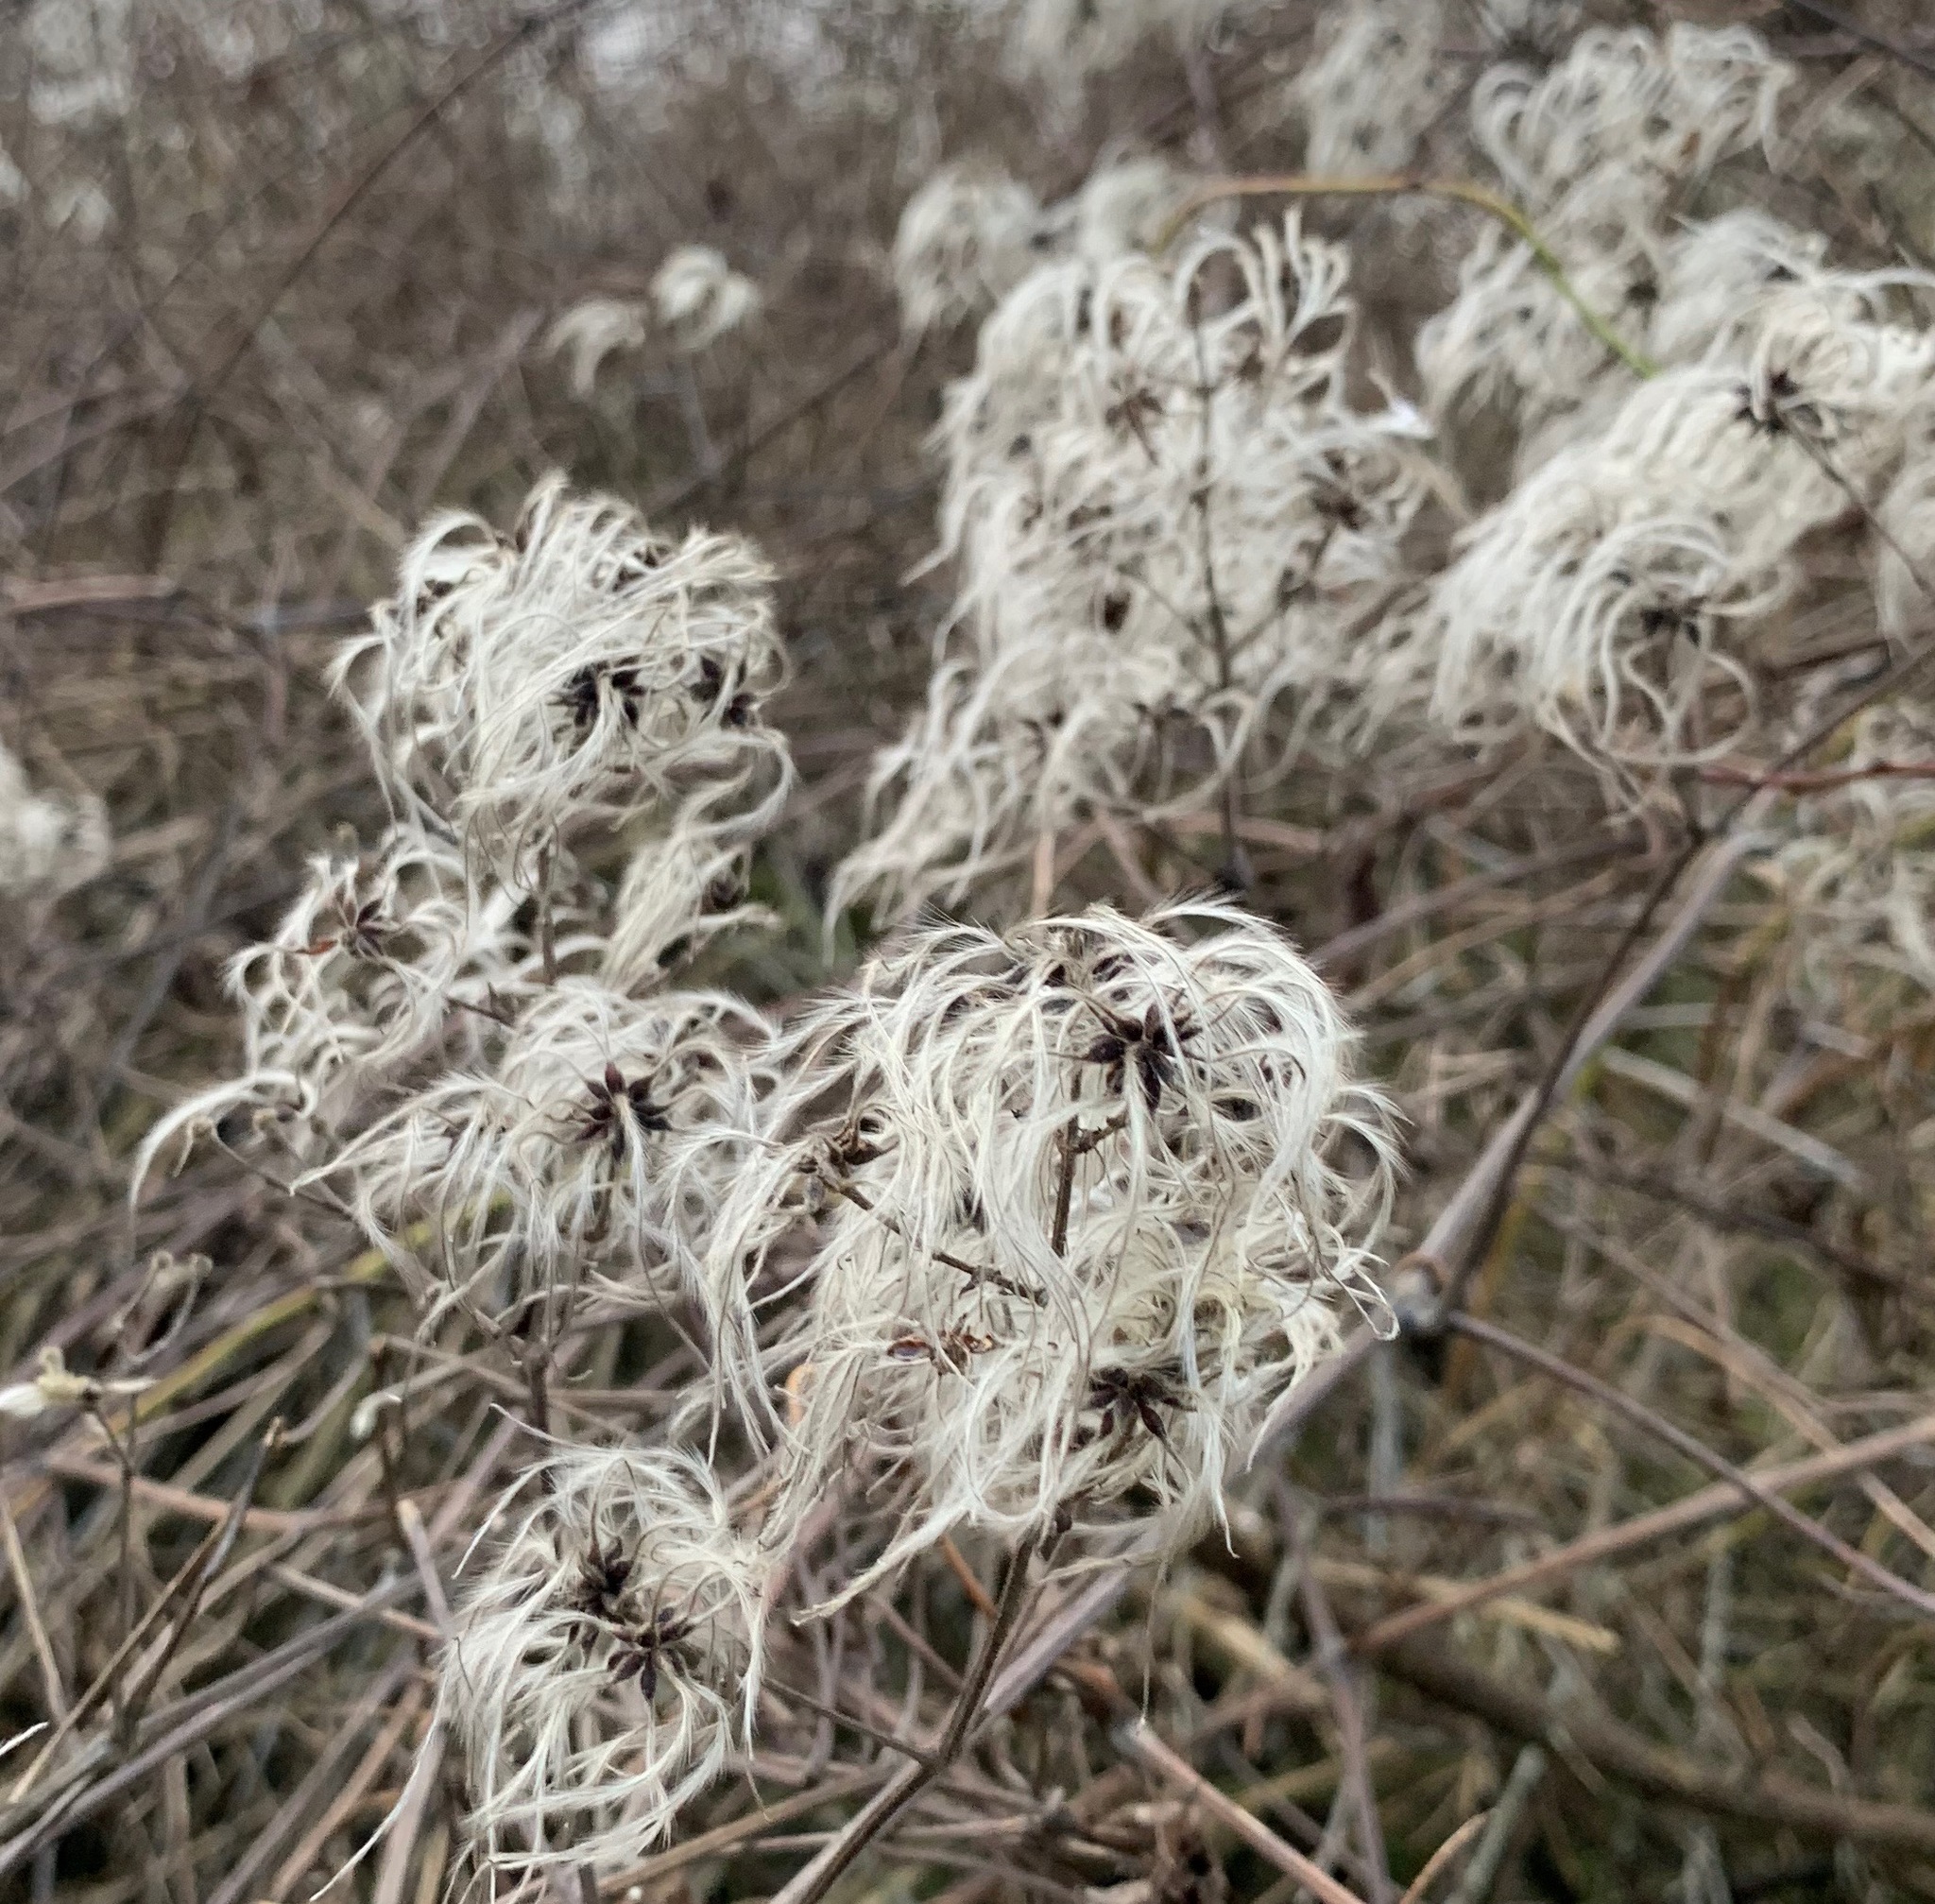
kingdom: Plantae
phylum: Tracheophyta
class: Magnoliopsida
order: Ranunculales
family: Ranunculaceae
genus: Clematis
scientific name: Clematis vitalba
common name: Evergreen clematis
